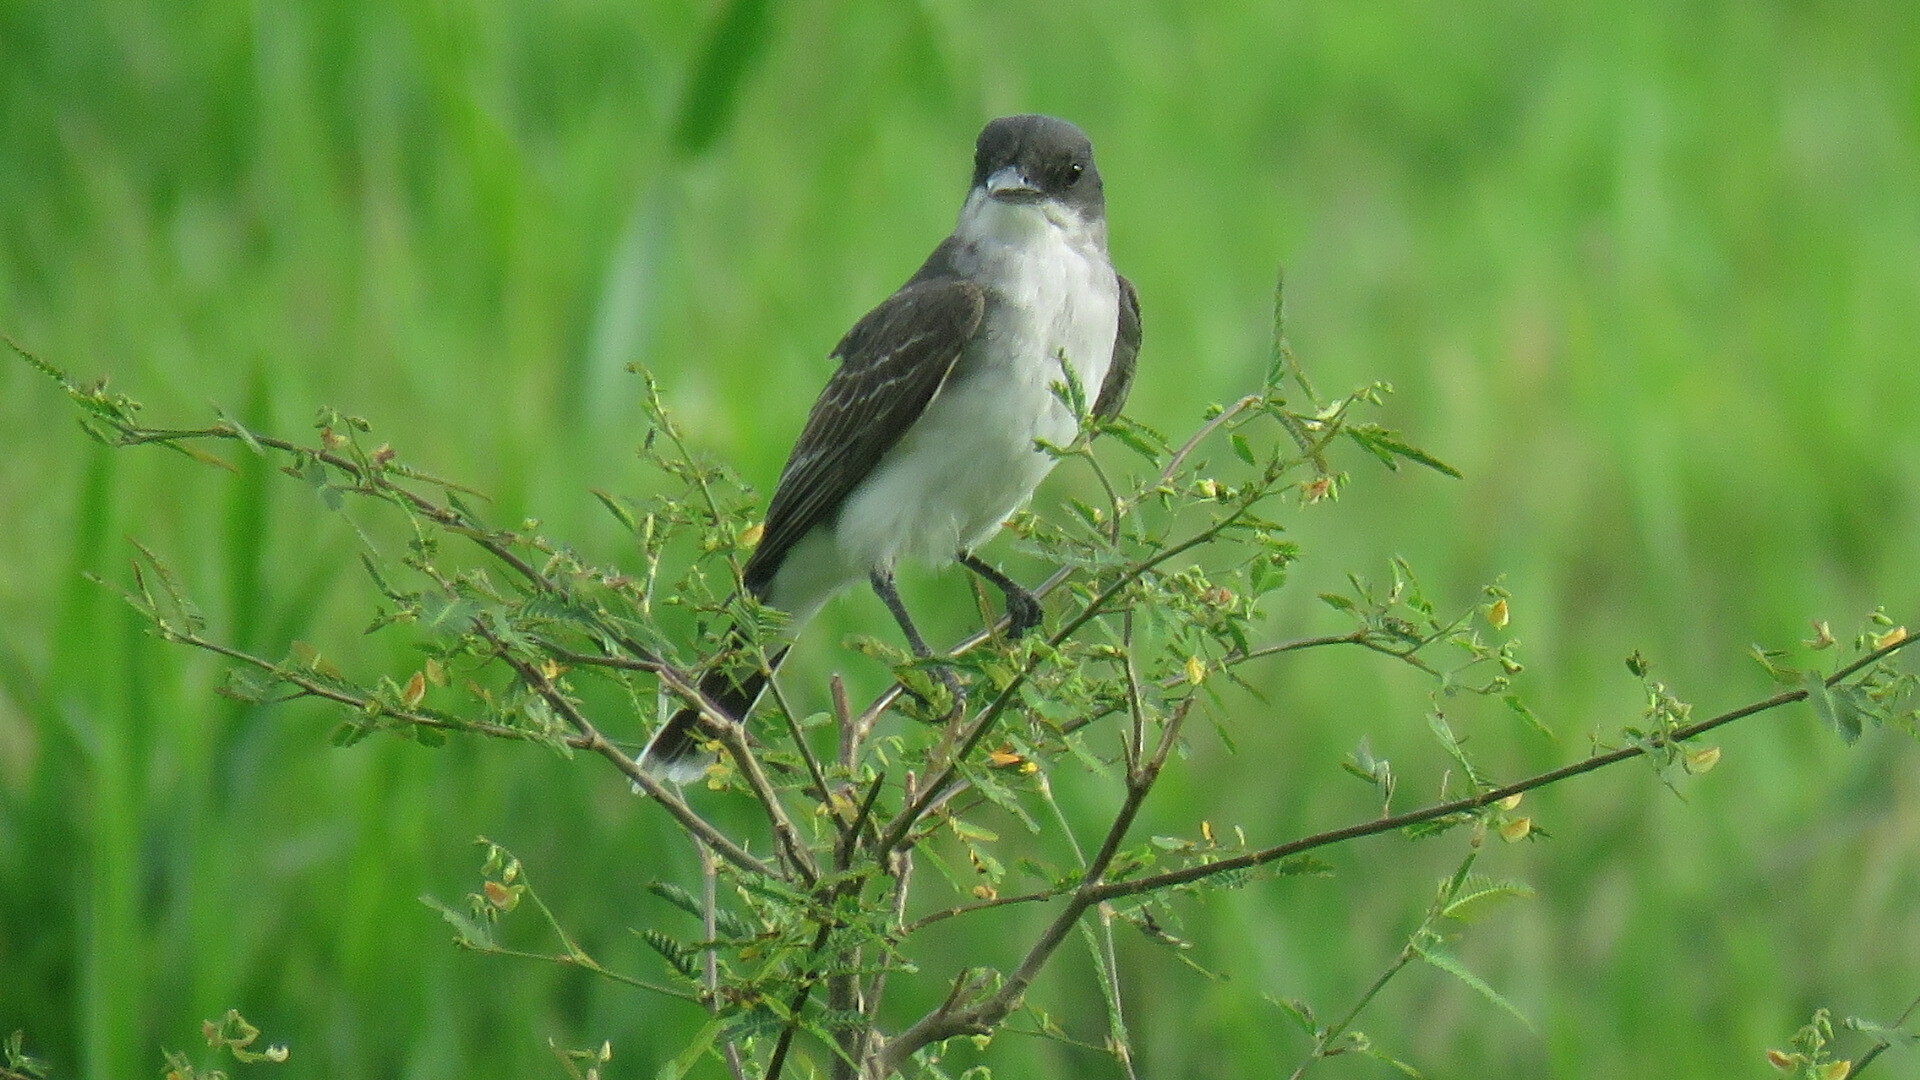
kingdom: Animalia
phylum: Chordata
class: Aves
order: Passeriformes
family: Tyrannidae
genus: Tyrannus
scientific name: Tyrannus tyrannus
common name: Eastern kingbird
